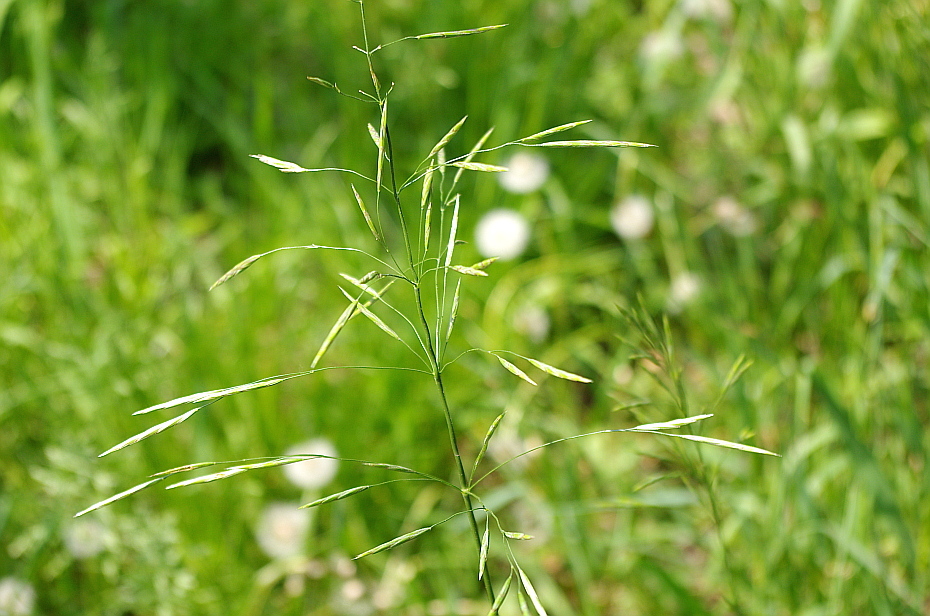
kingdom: Plantae
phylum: Tracheophyta
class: Liliopsida
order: Poales
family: Poaceae
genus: Bromus
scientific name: Bromus inermis
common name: Smooth brome
